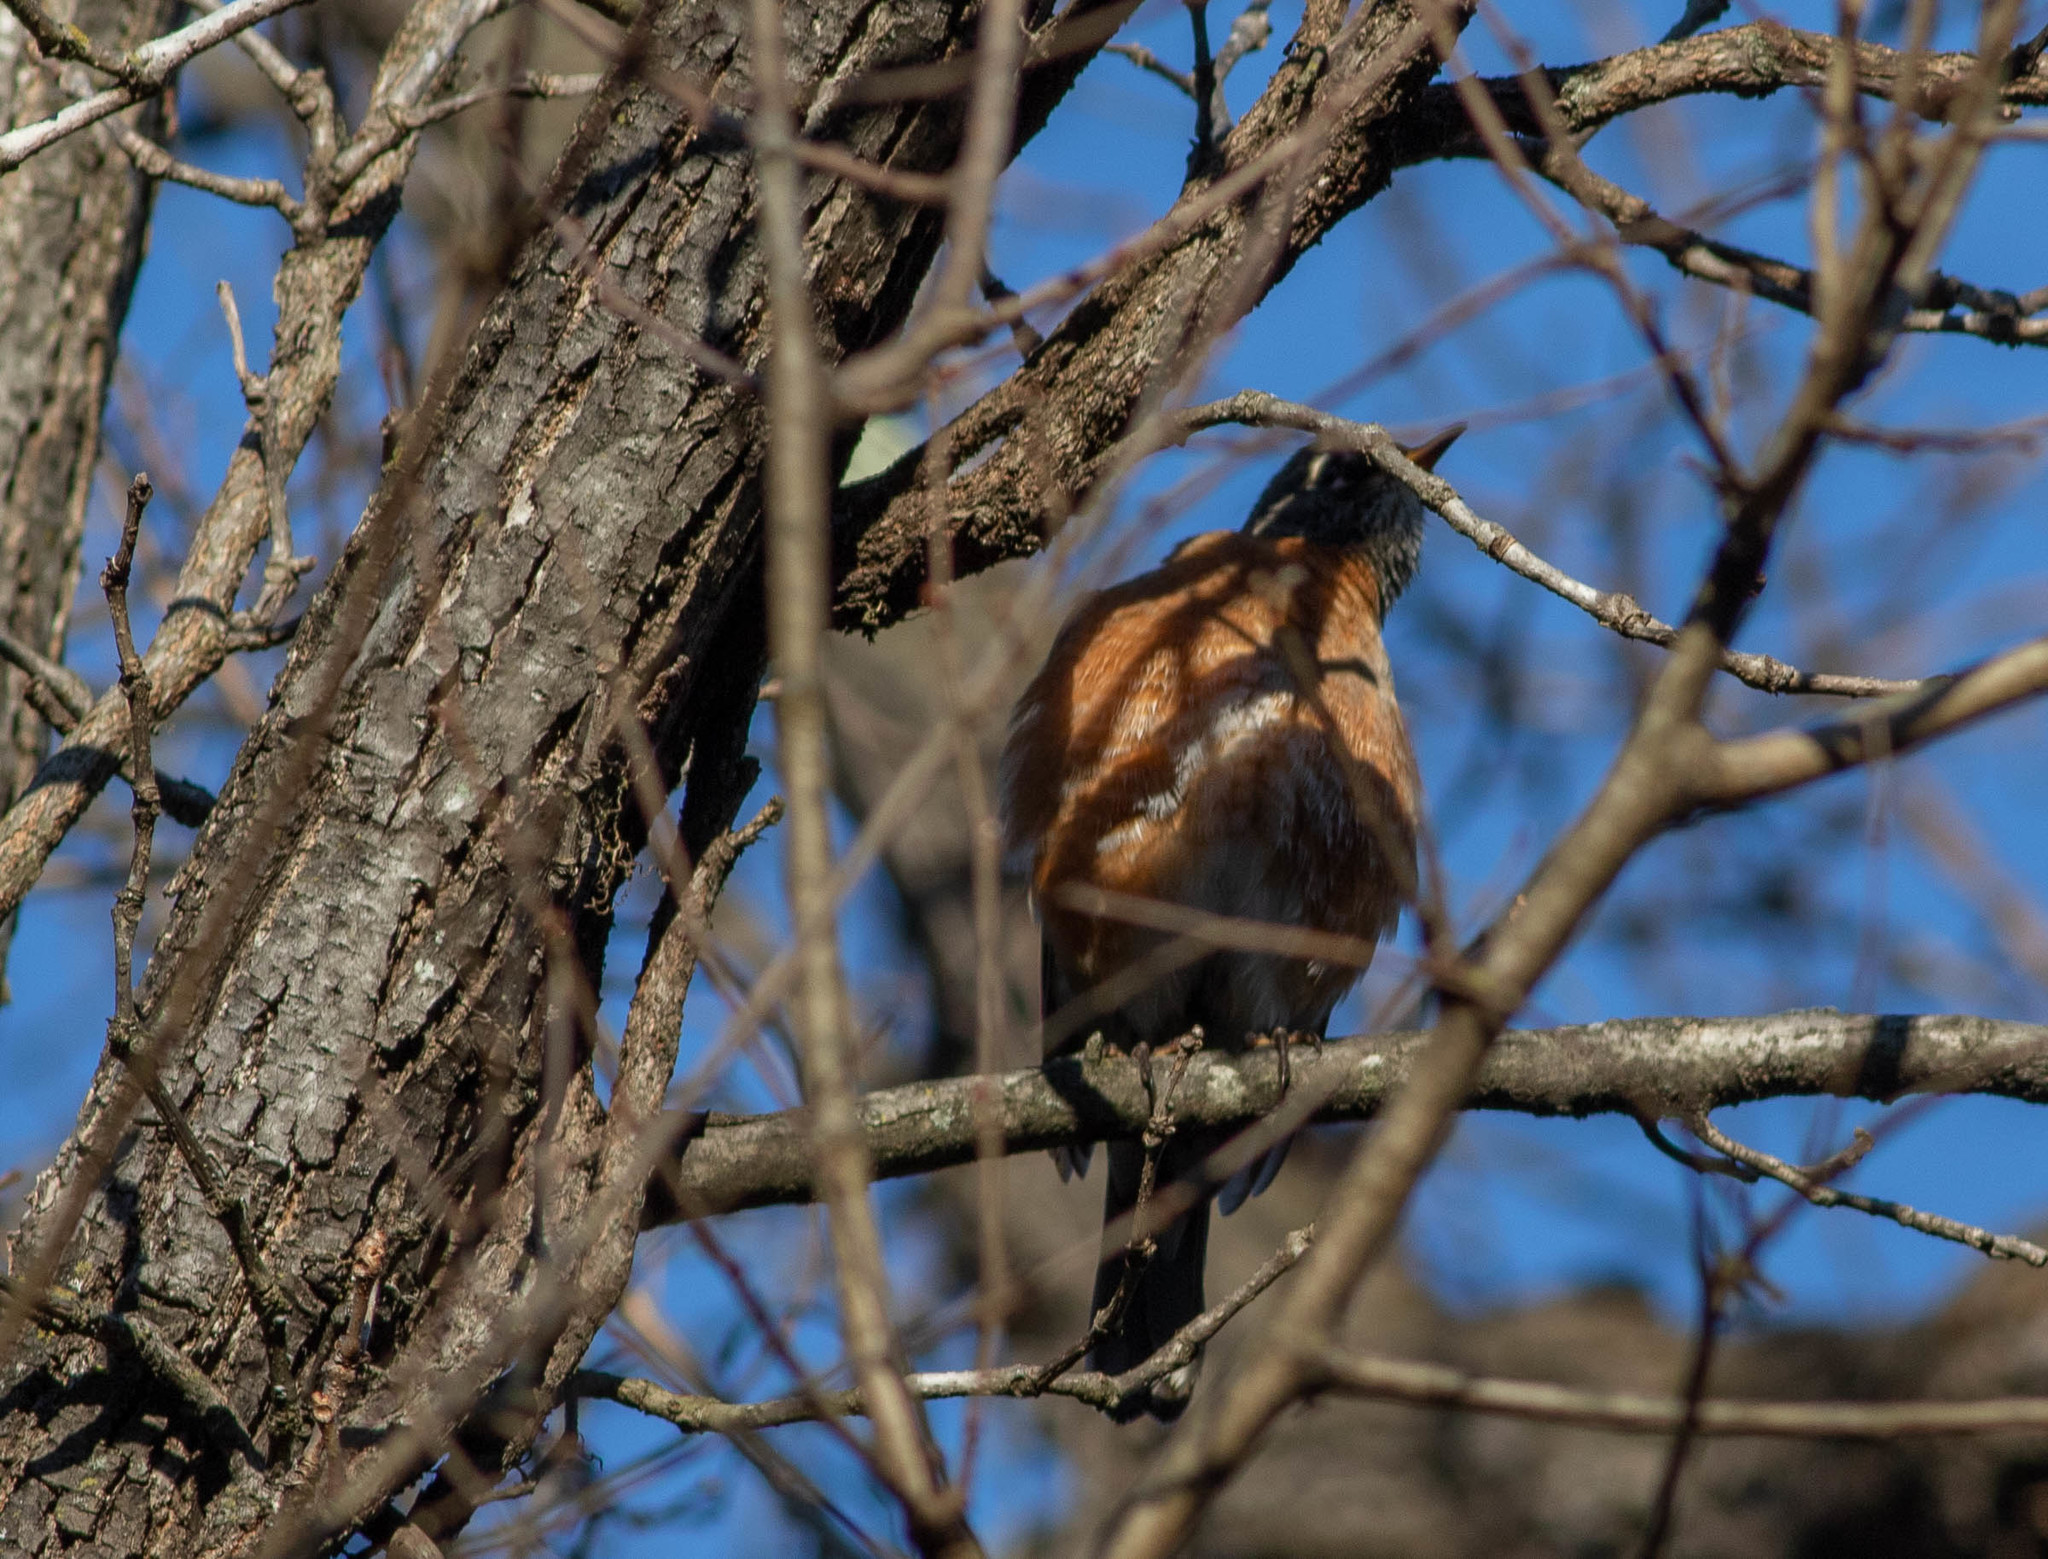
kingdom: Animalia
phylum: Chordata
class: Aves
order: Passeriformes
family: Turdidae
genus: Turdus
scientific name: Turdus migratorius
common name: American robin
